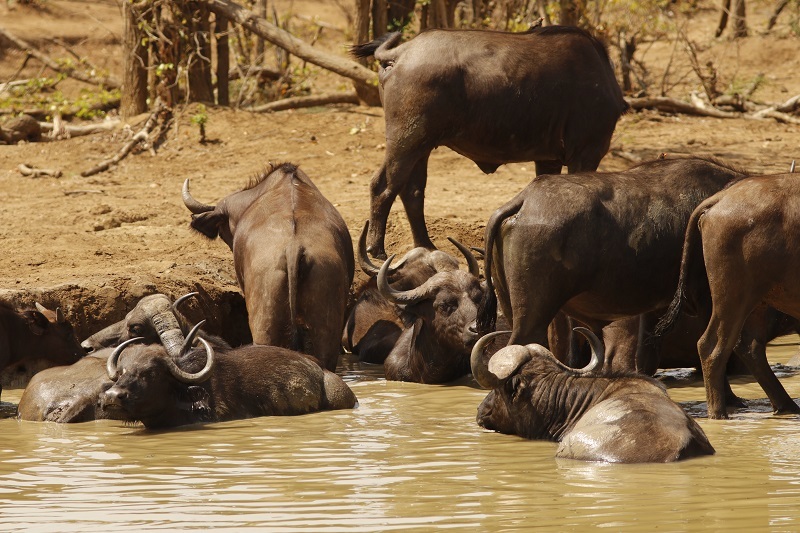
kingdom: Animalia
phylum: Chordata
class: Mammalia
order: Artiodactyla
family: Bovidae
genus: Syncerus
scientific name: Syncerus caffer
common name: African buffalo
